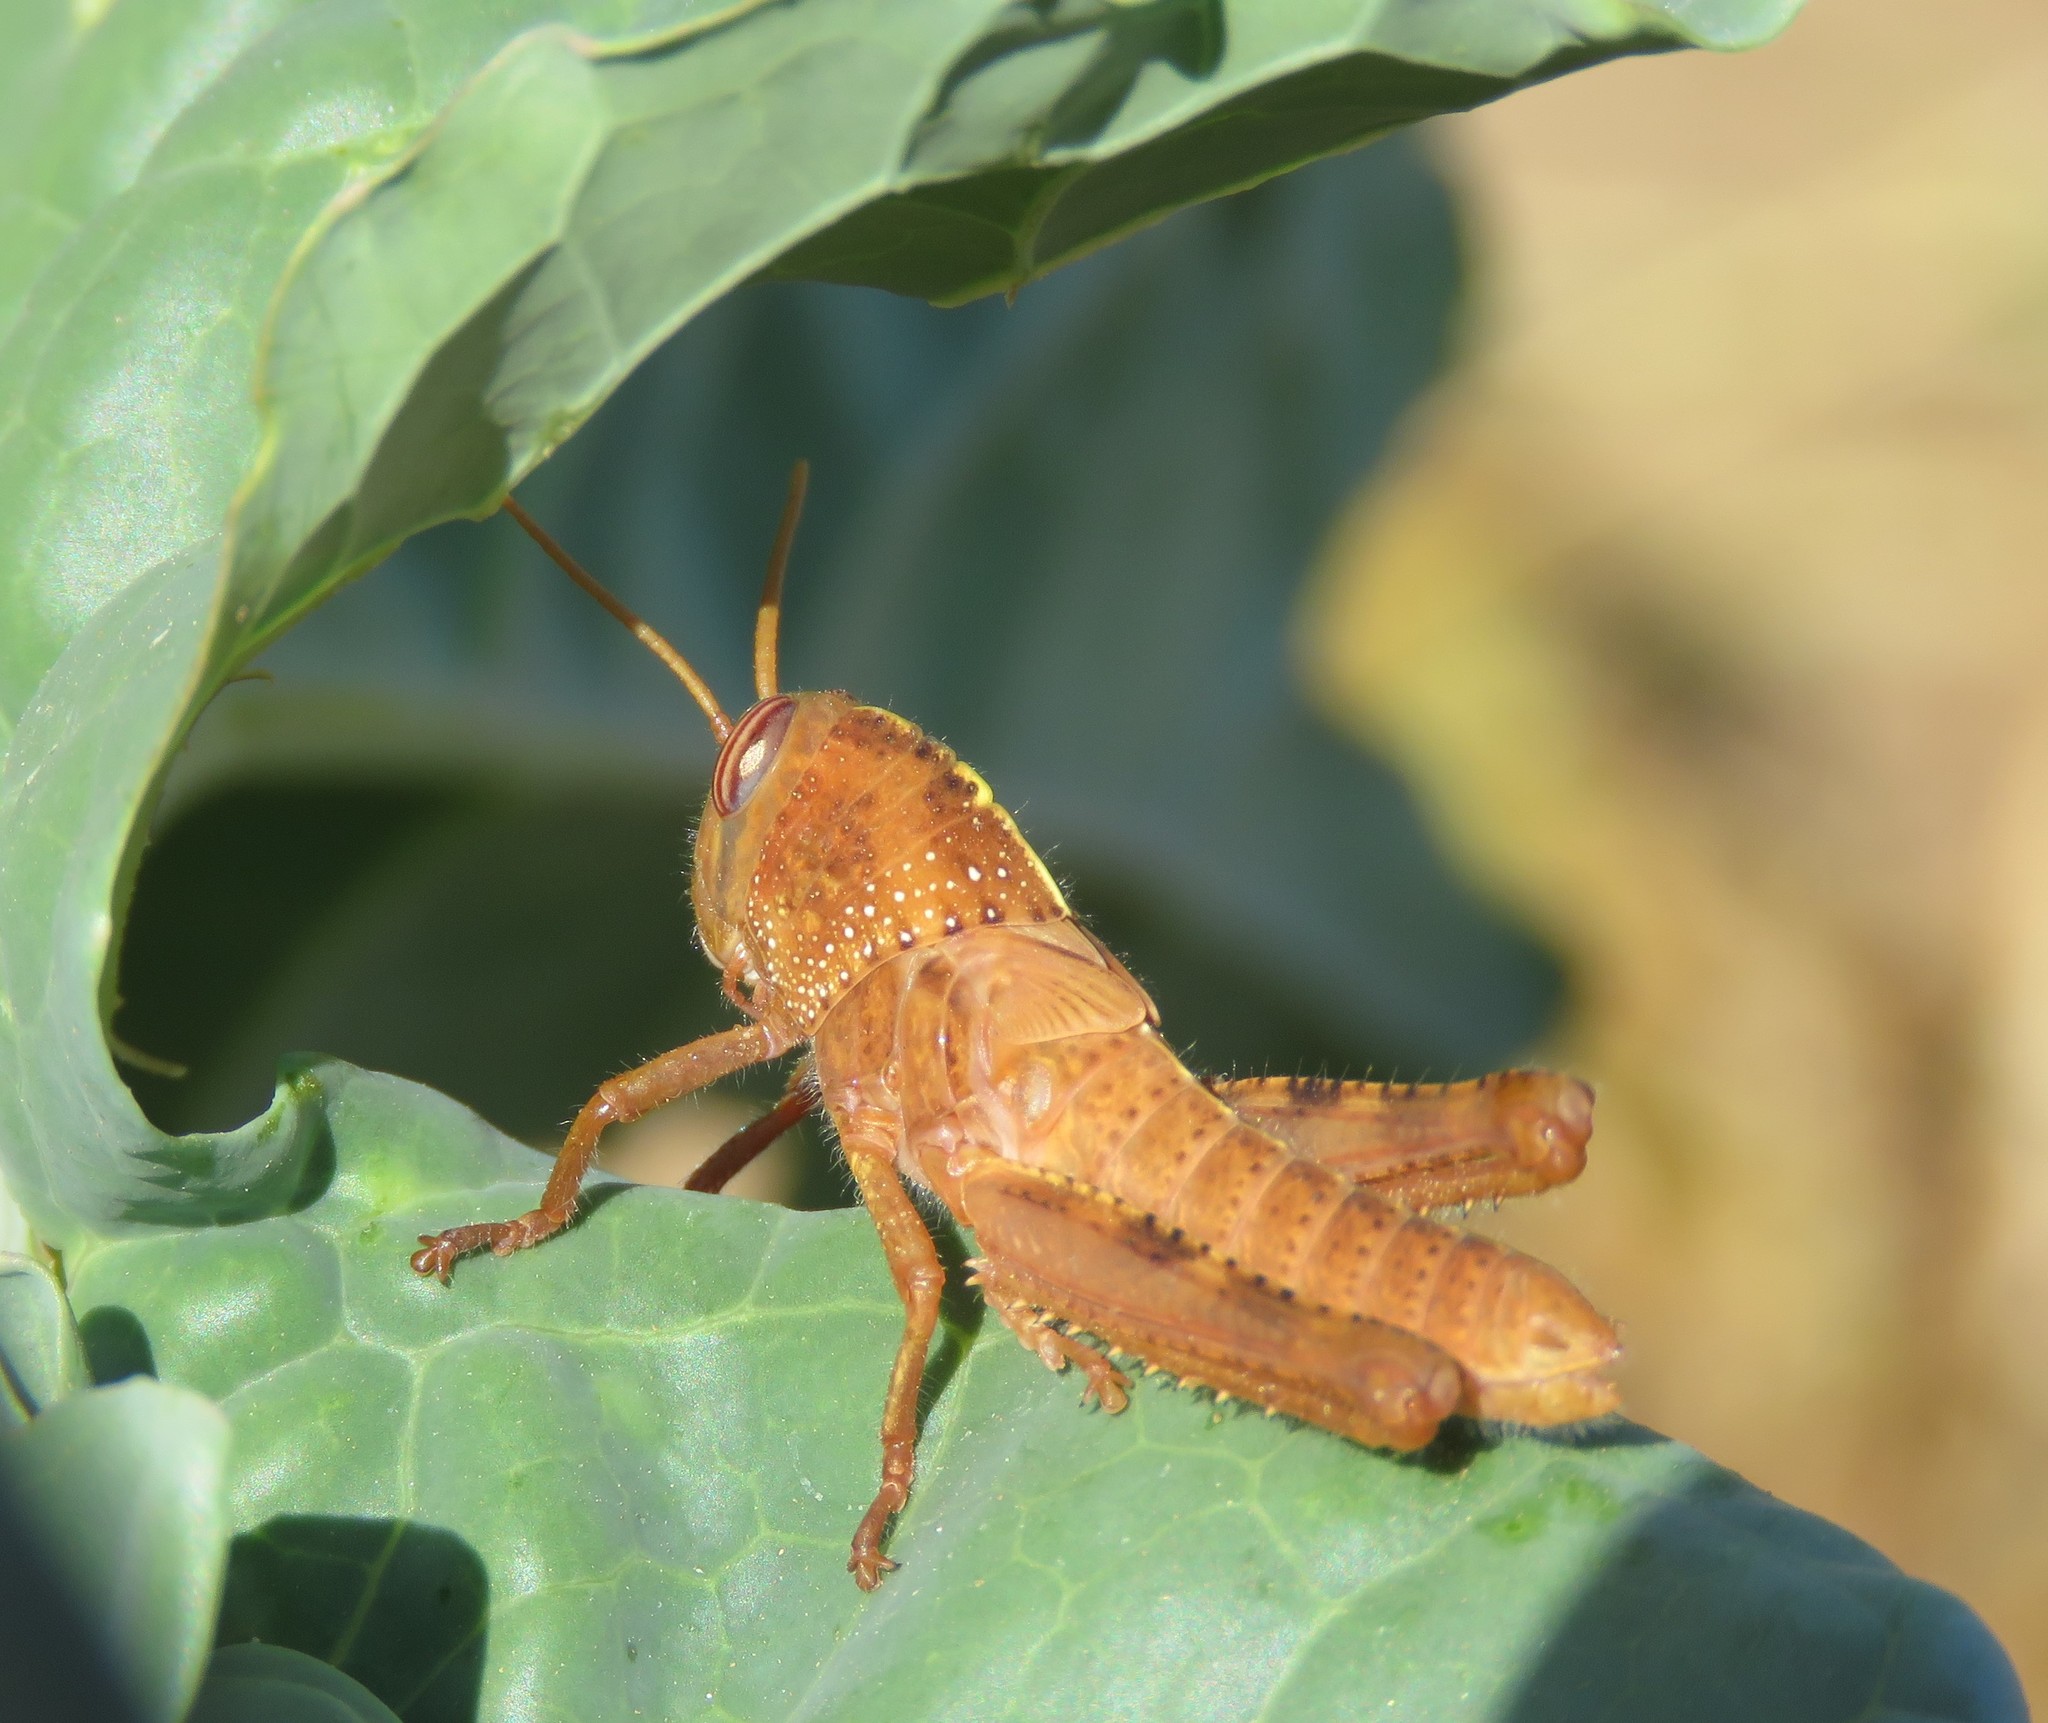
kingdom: Animalia
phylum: Arthropoda
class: Insecta
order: Orthoptera
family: Acrididae
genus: Anacridium
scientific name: Anacridium aegyptium
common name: Egyptian grasshopper
